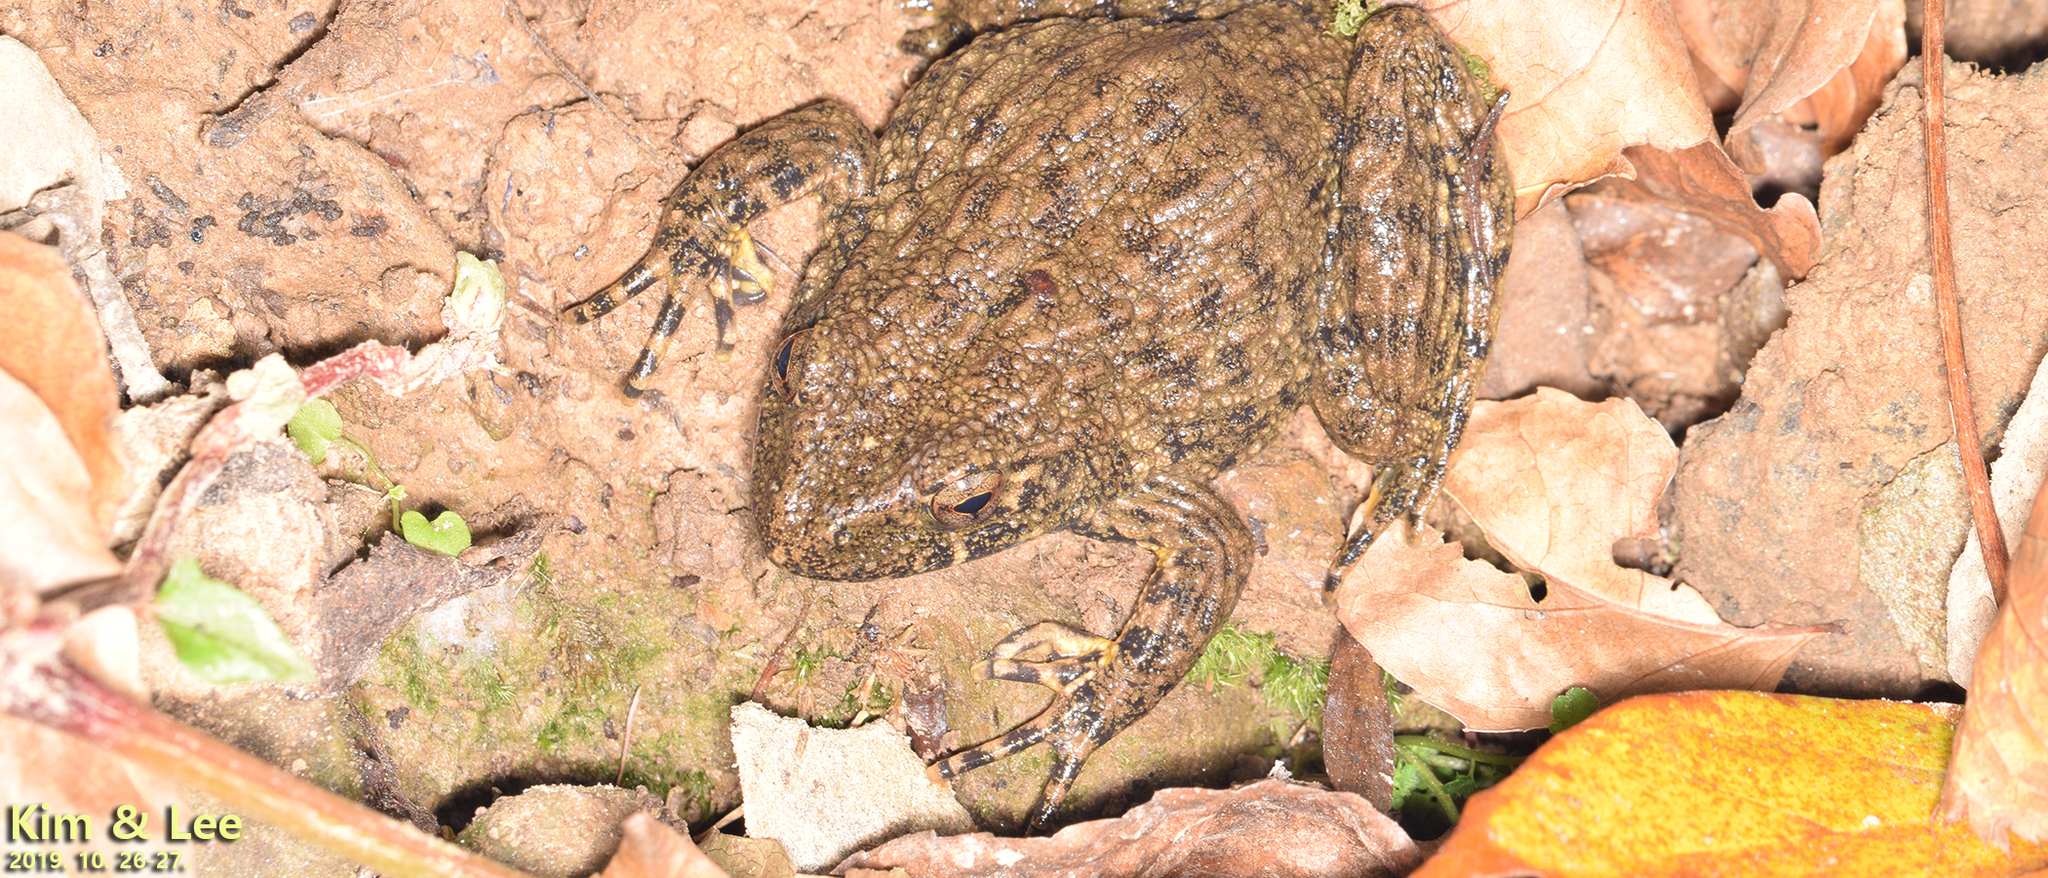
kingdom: Animalia
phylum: Chordata
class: Amphibia
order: Anura
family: Ranidae
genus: Glandirana
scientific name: Glandirana emeljanovi
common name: Northeast china rough-skinned frog
